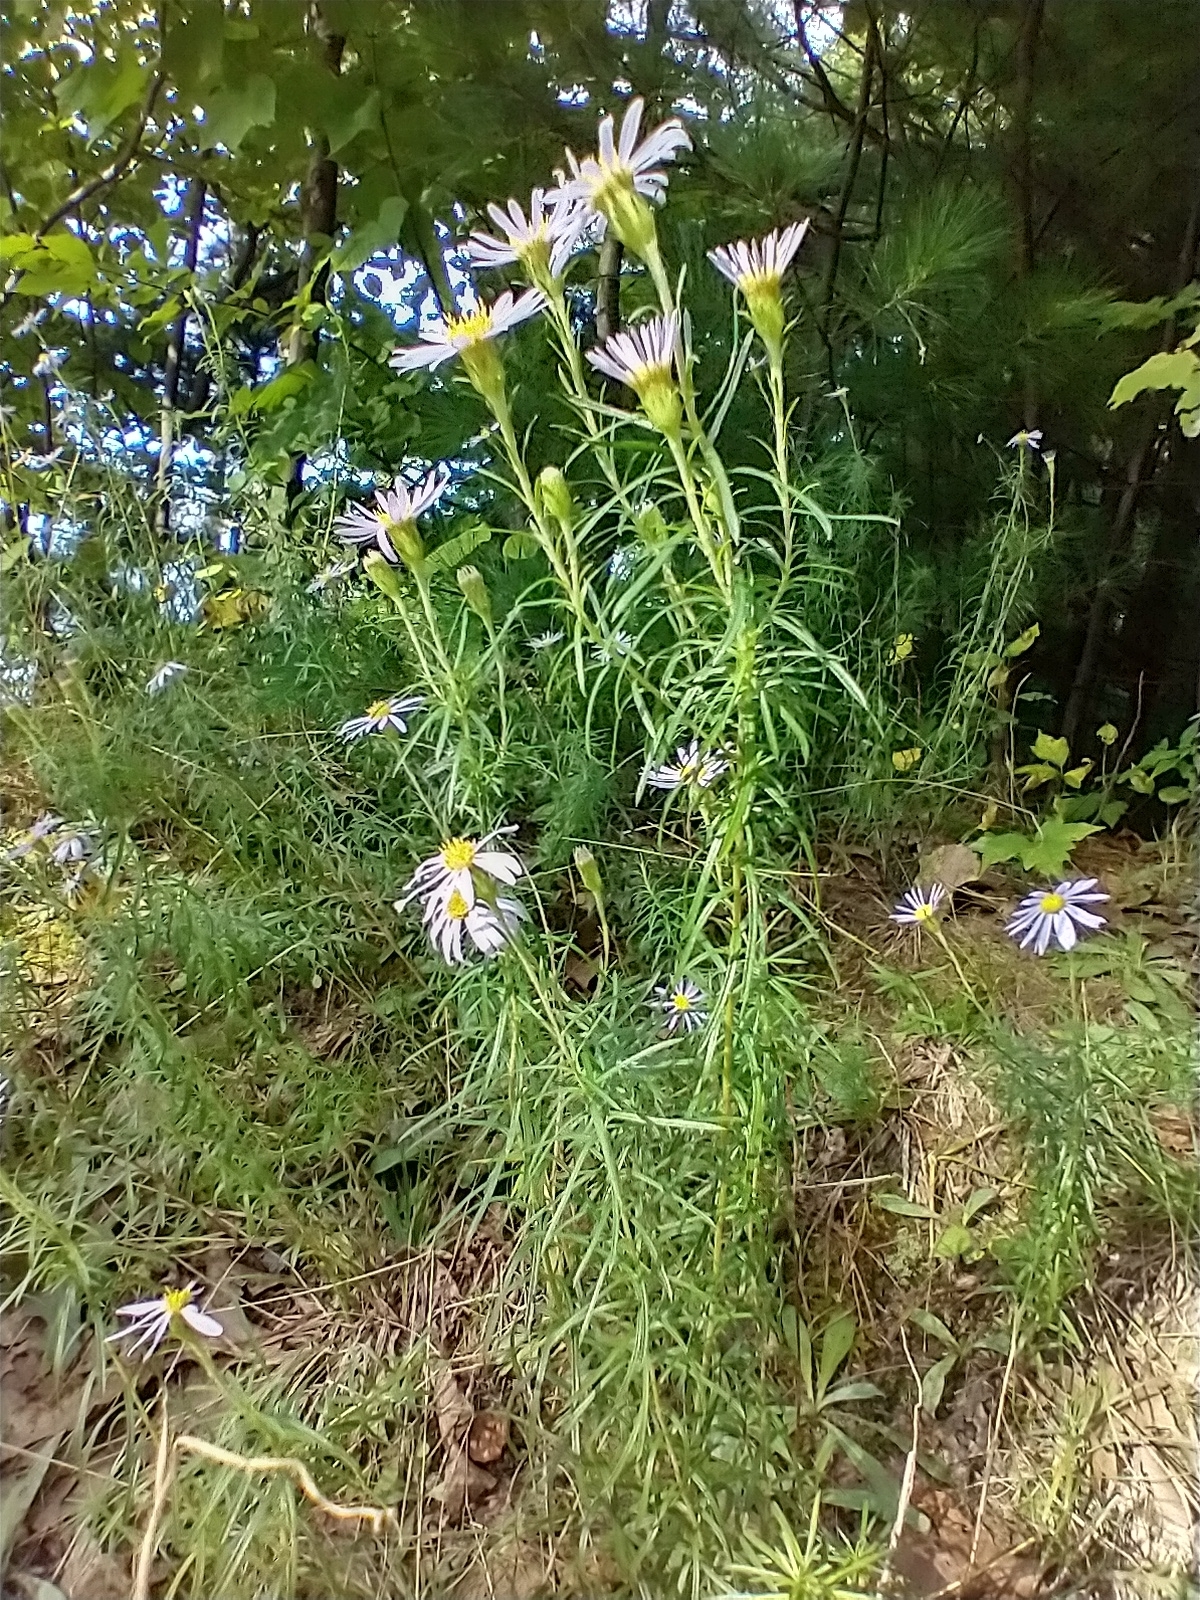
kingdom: Plantae
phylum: Tracheophyta
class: Magnoliopsida
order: Asterales
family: Asteraceae
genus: Ionactis
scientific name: Ionactis linariifolia
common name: Flax-leaf aster
